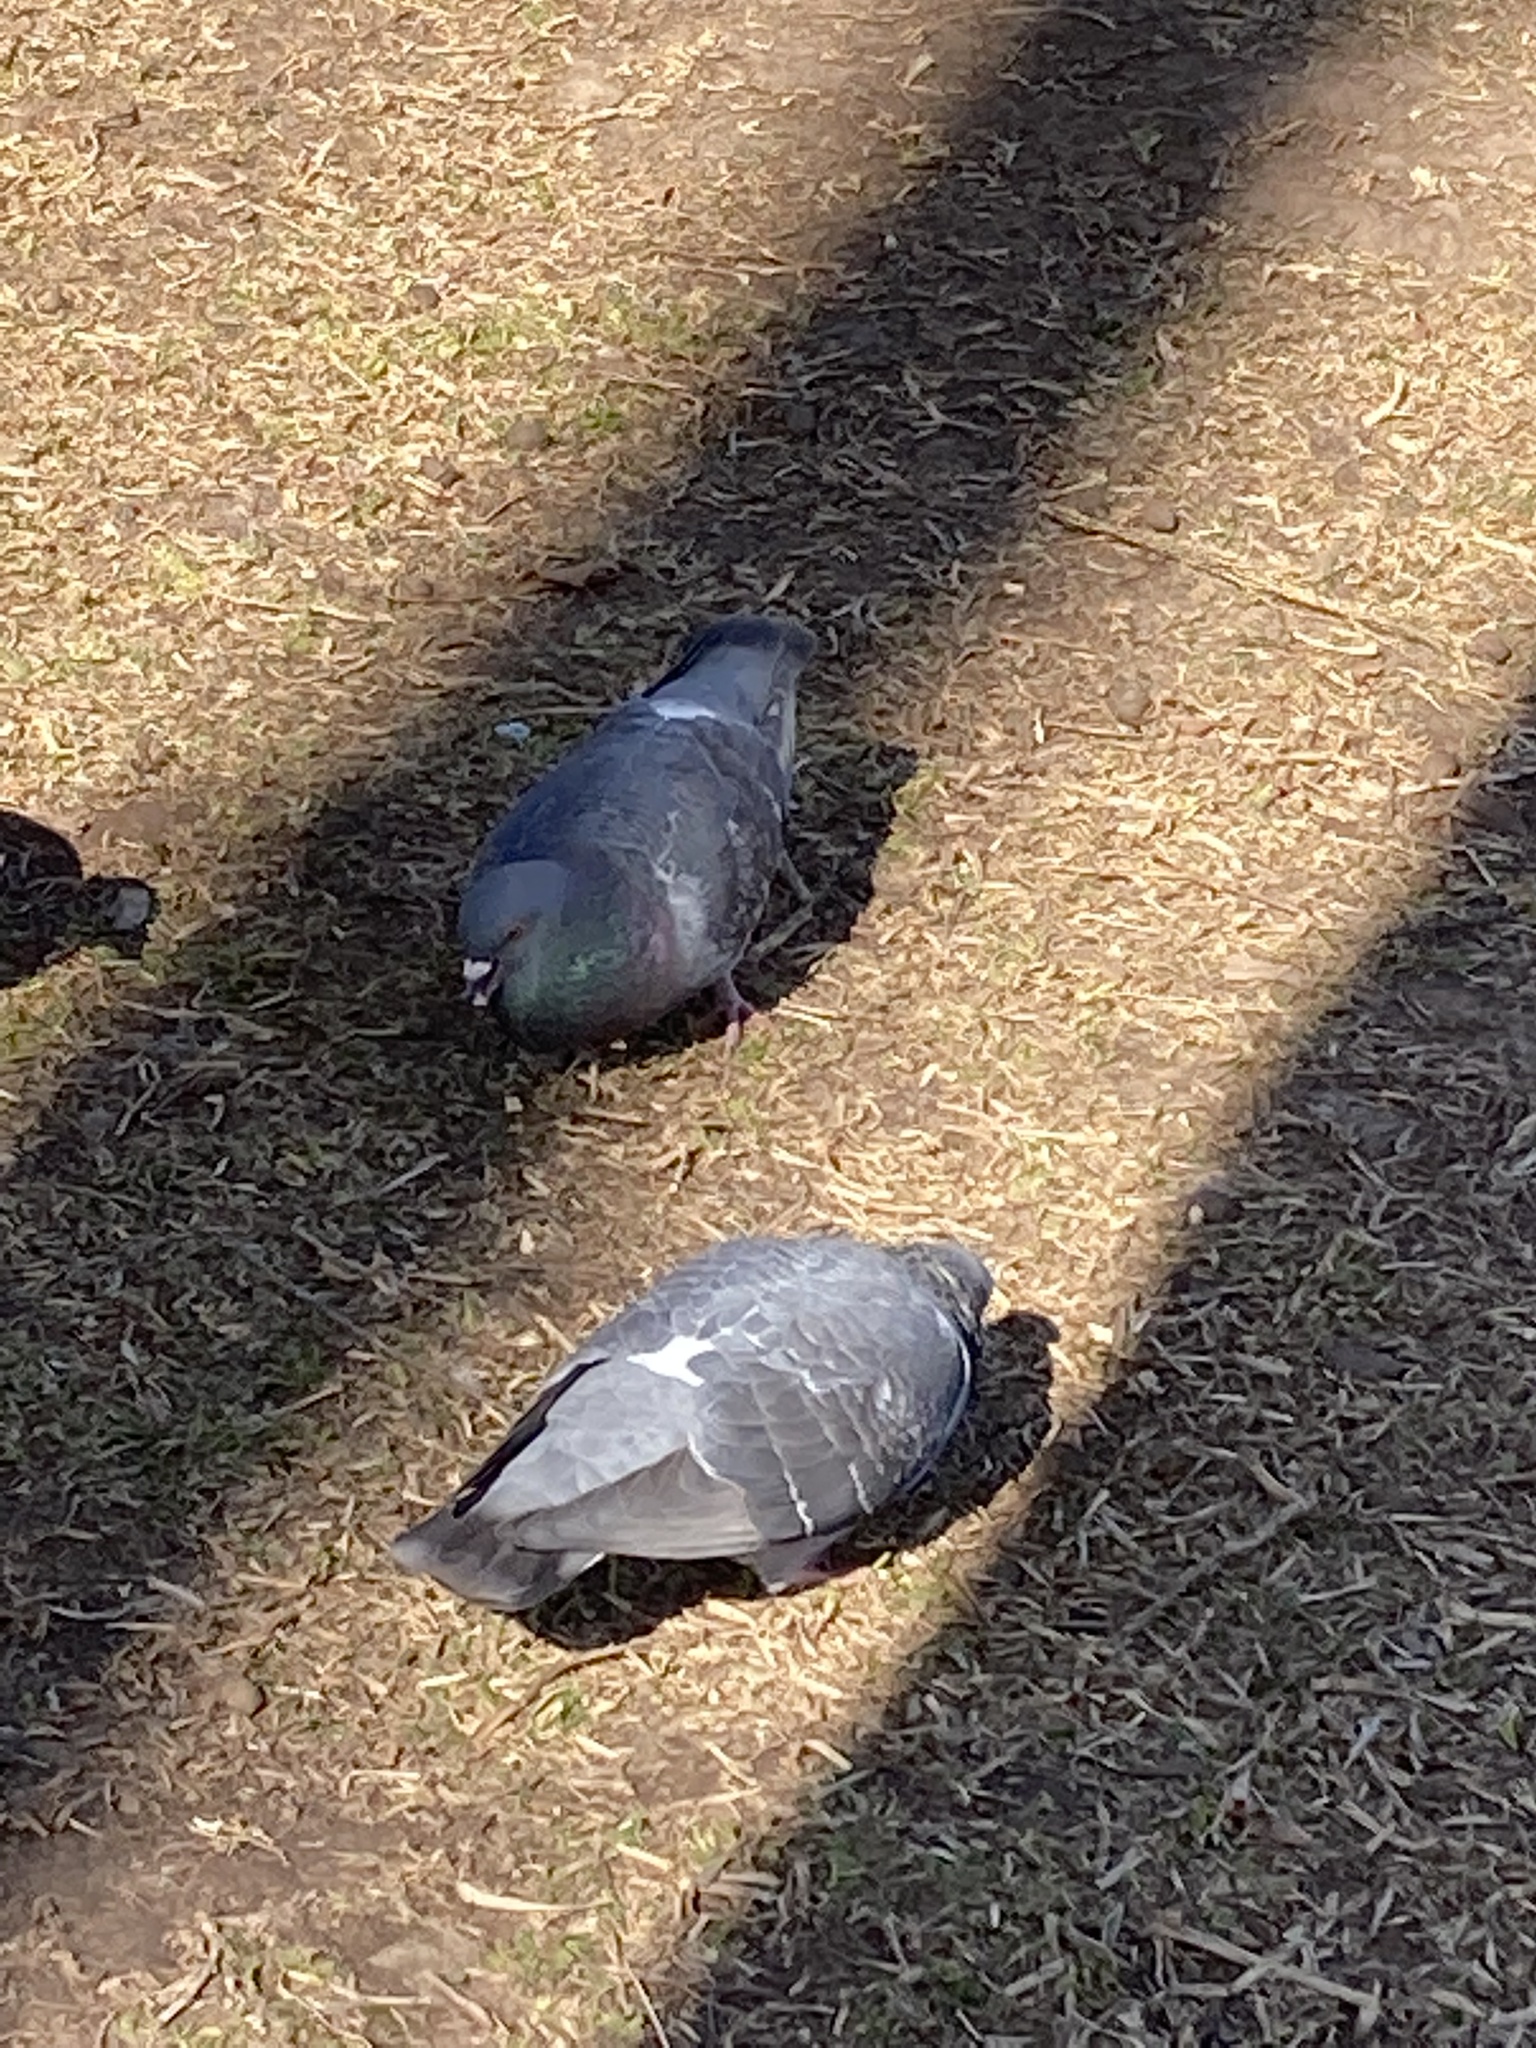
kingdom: Animalia
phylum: Chordata
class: Aves
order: Columbiformes
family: Columbidae
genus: Columba
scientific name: Columba livia
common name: Rock pigeon
